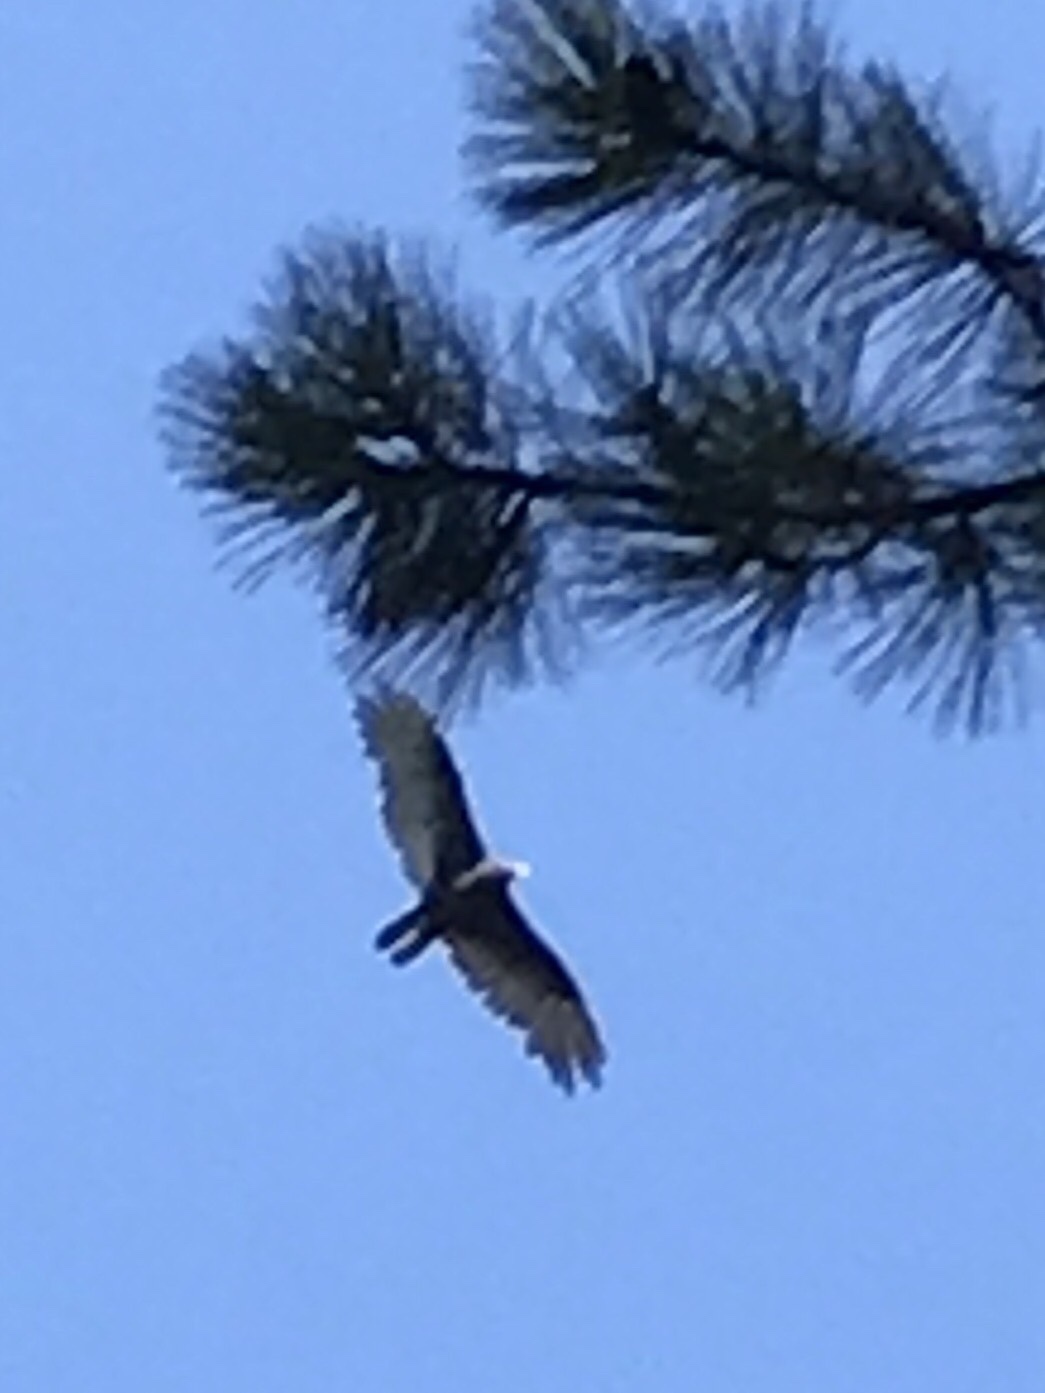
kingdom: Animalia
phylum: Chordata
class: Aves
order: Accipitriformes
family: Cathartidae
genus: Cathartes
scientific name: Cathartes aura
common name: Turkey vulture
